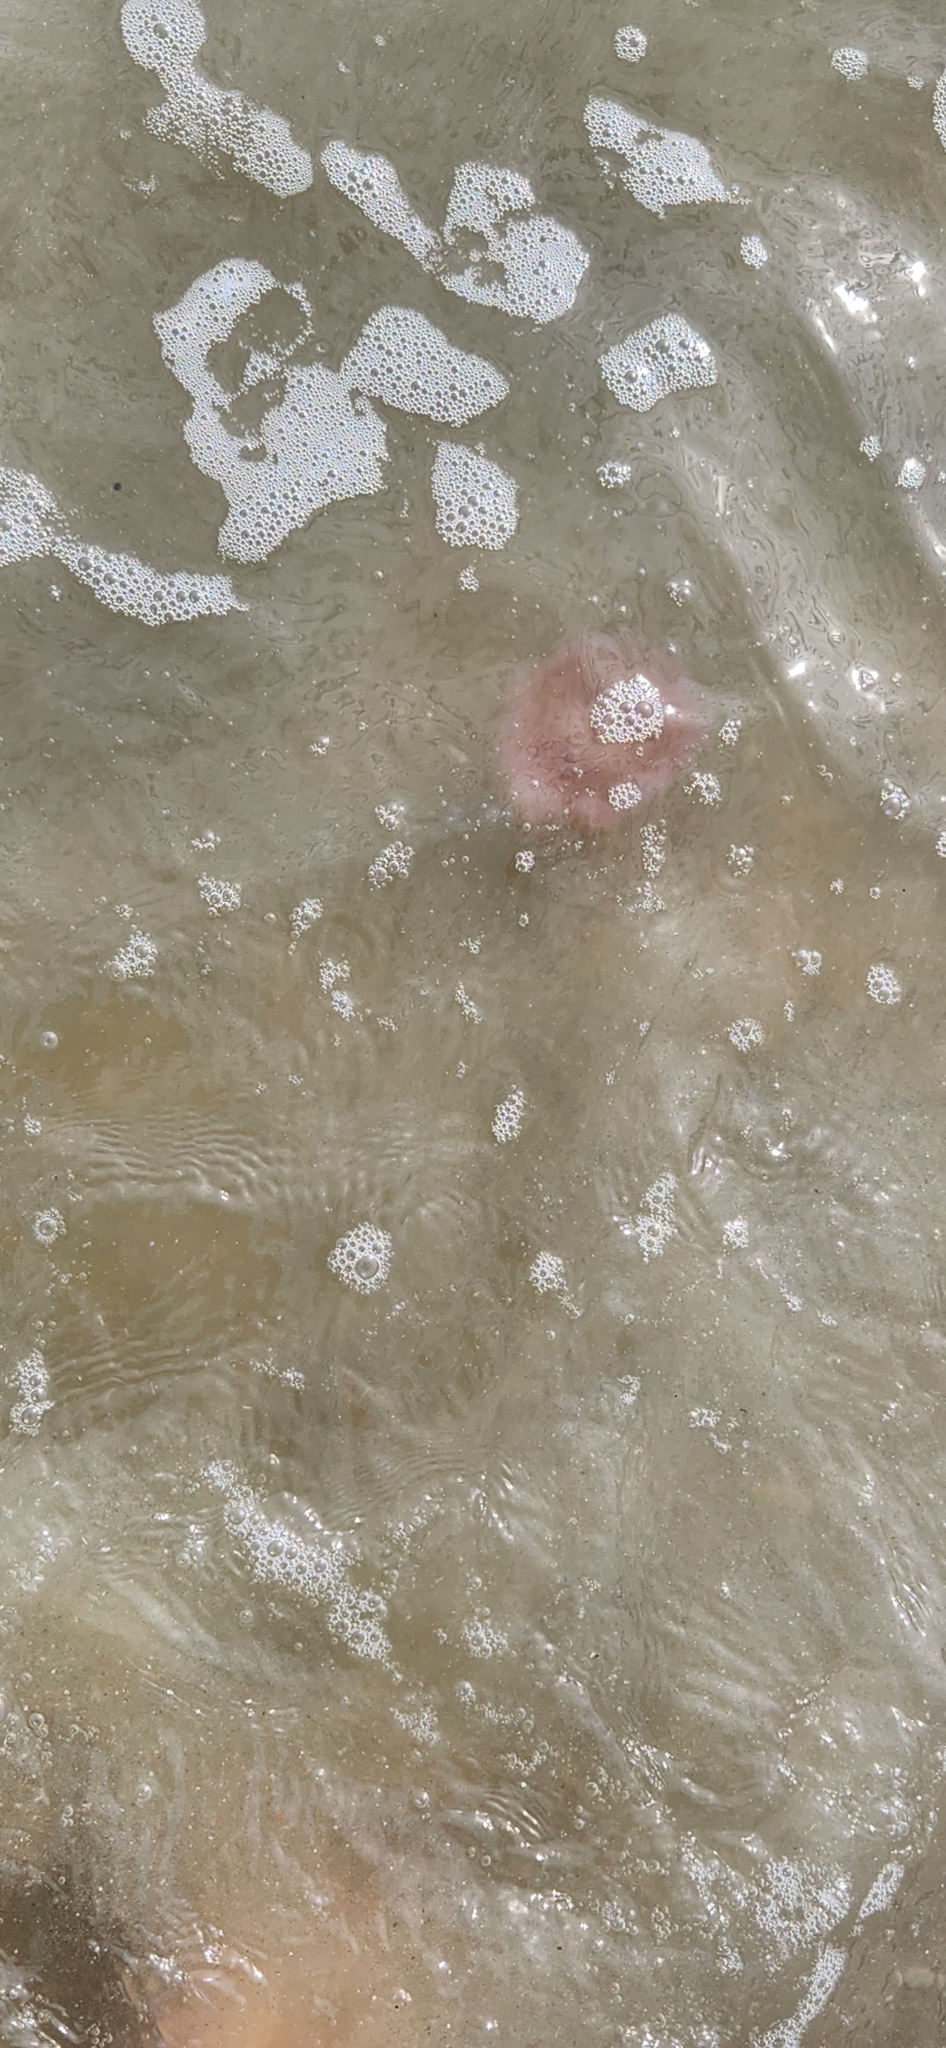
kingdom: Animalia
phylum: Cnidaria
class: Scyphozoa
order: Semaeostomeae
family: Cyaneidae
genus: Cyanea
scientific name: Cyanea versicolor
